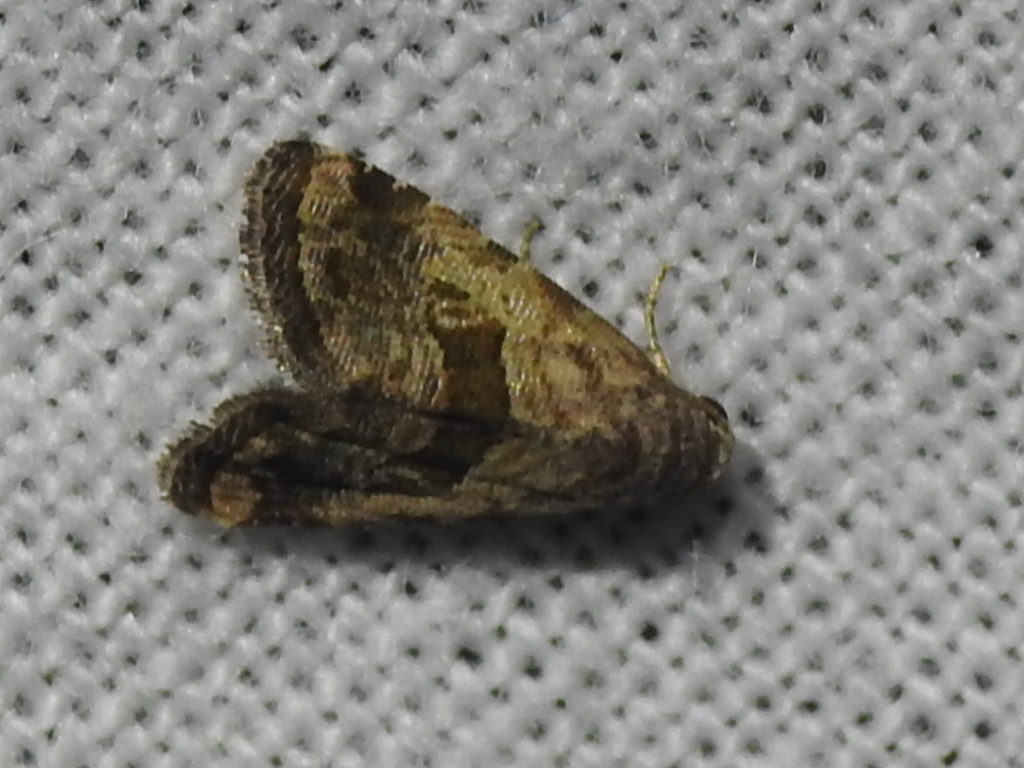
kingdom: Animalia
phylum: Arthropoda
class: Insecta
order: Lepidoptera
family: Noctuidae
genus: Tripudia
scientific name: Tripudia quadrifera
